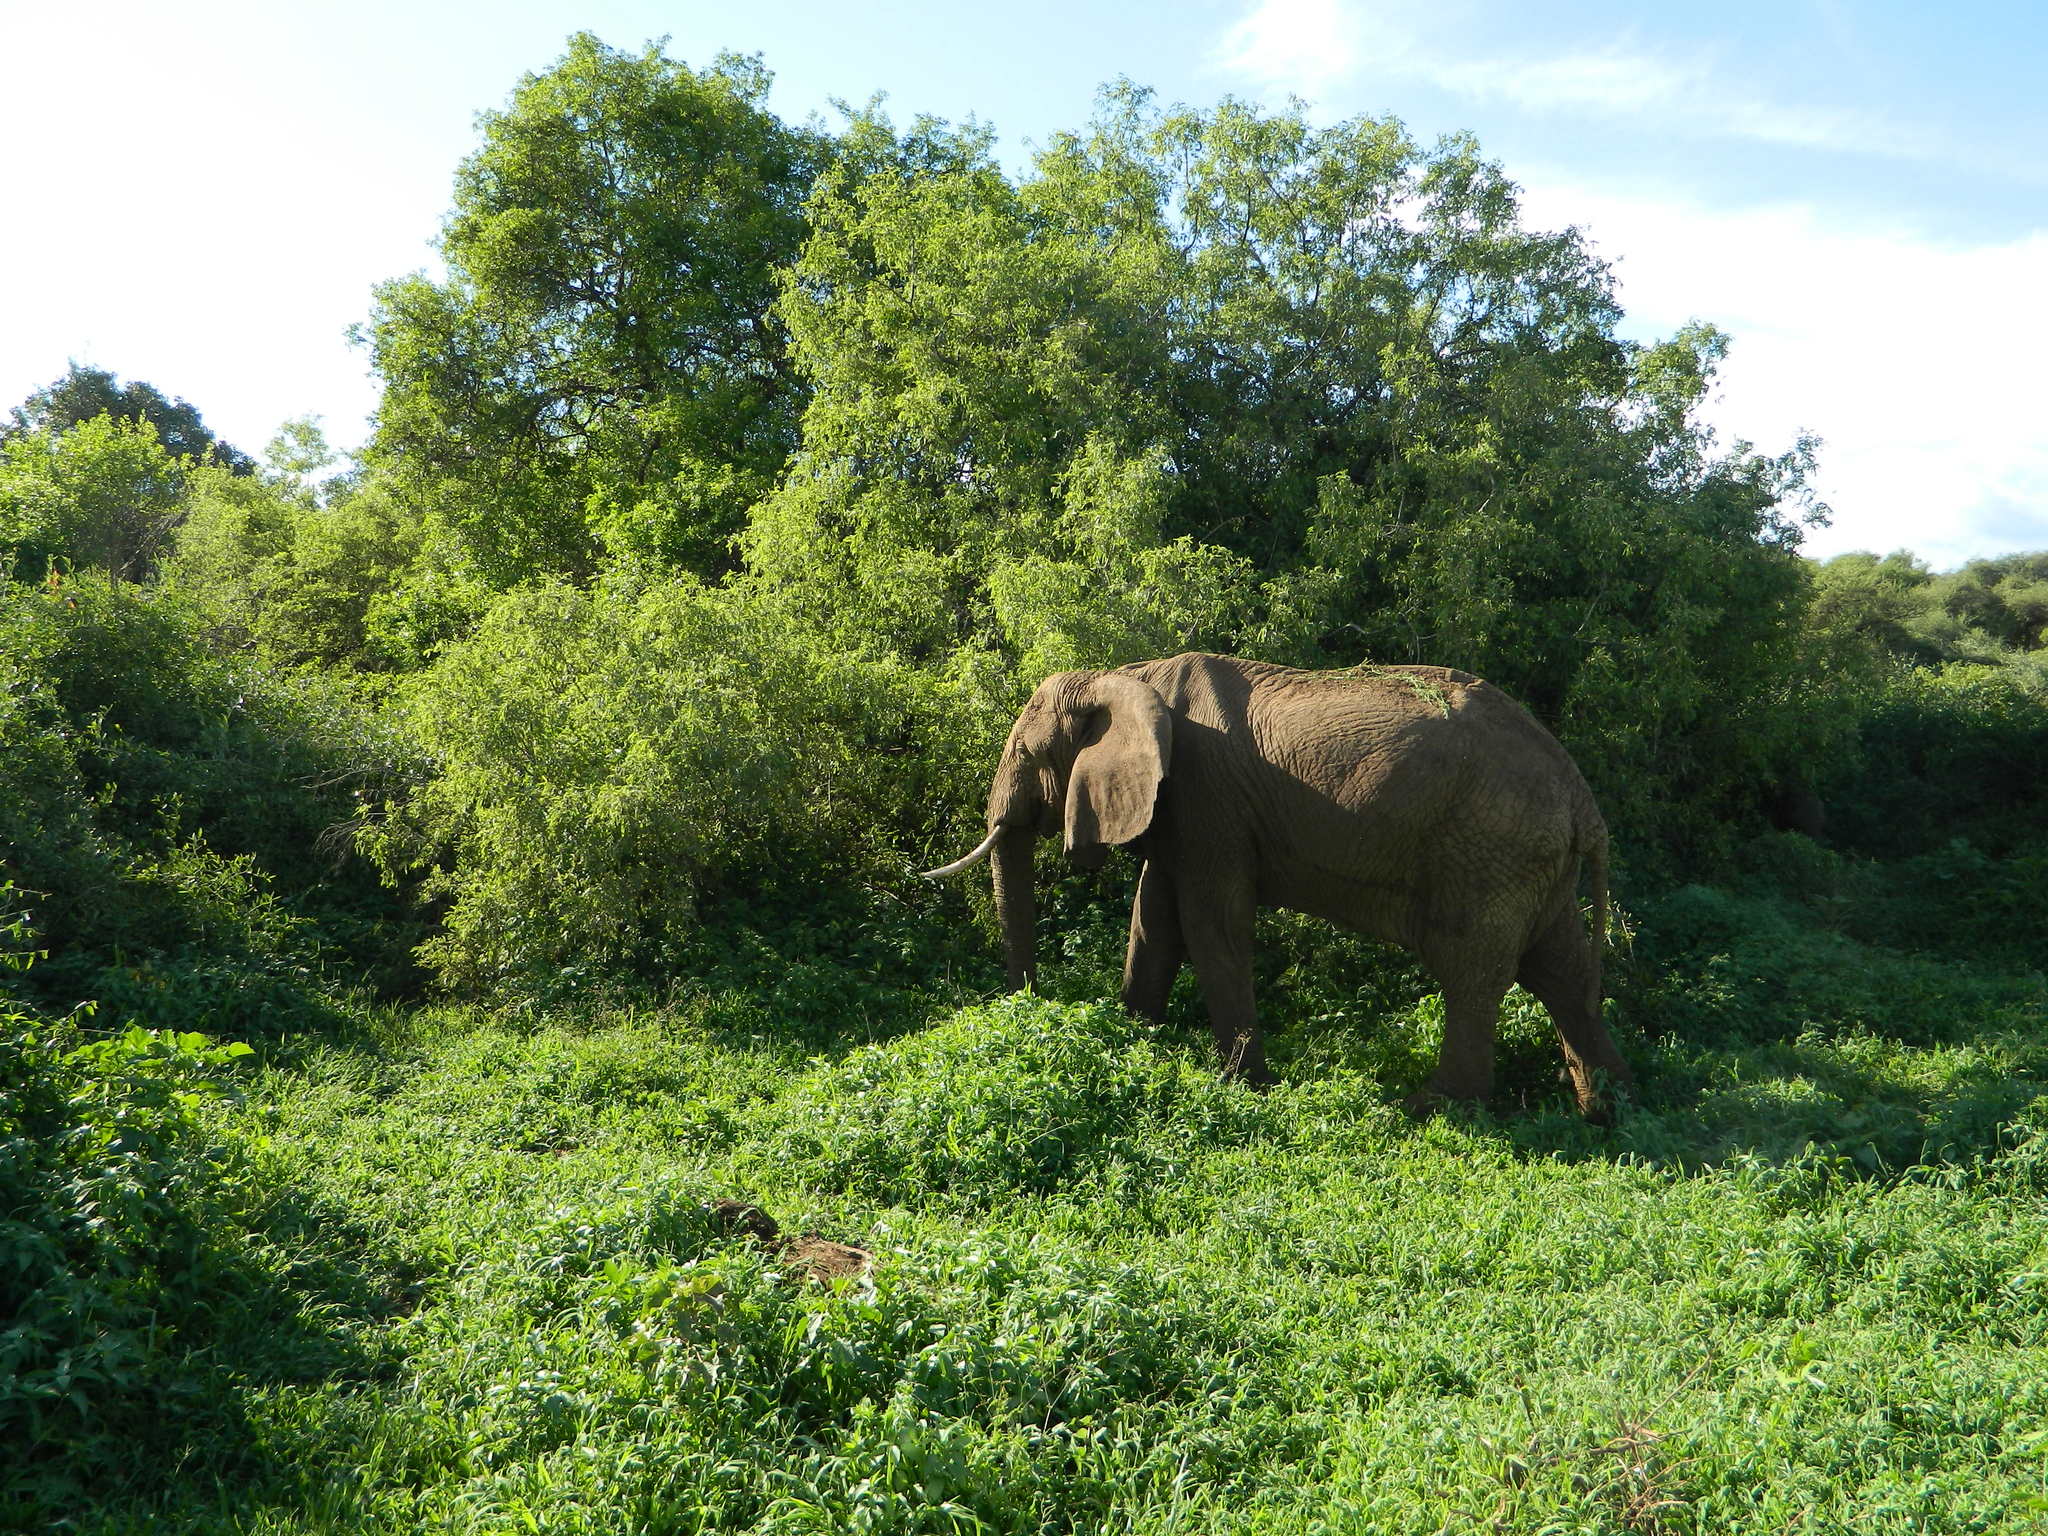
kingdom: Animalia
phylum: Chordata
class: Mammalia
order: Proboscidea
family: Elephantidae
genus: Loxodonta
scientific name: Loxodonta africana
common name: African elephant
